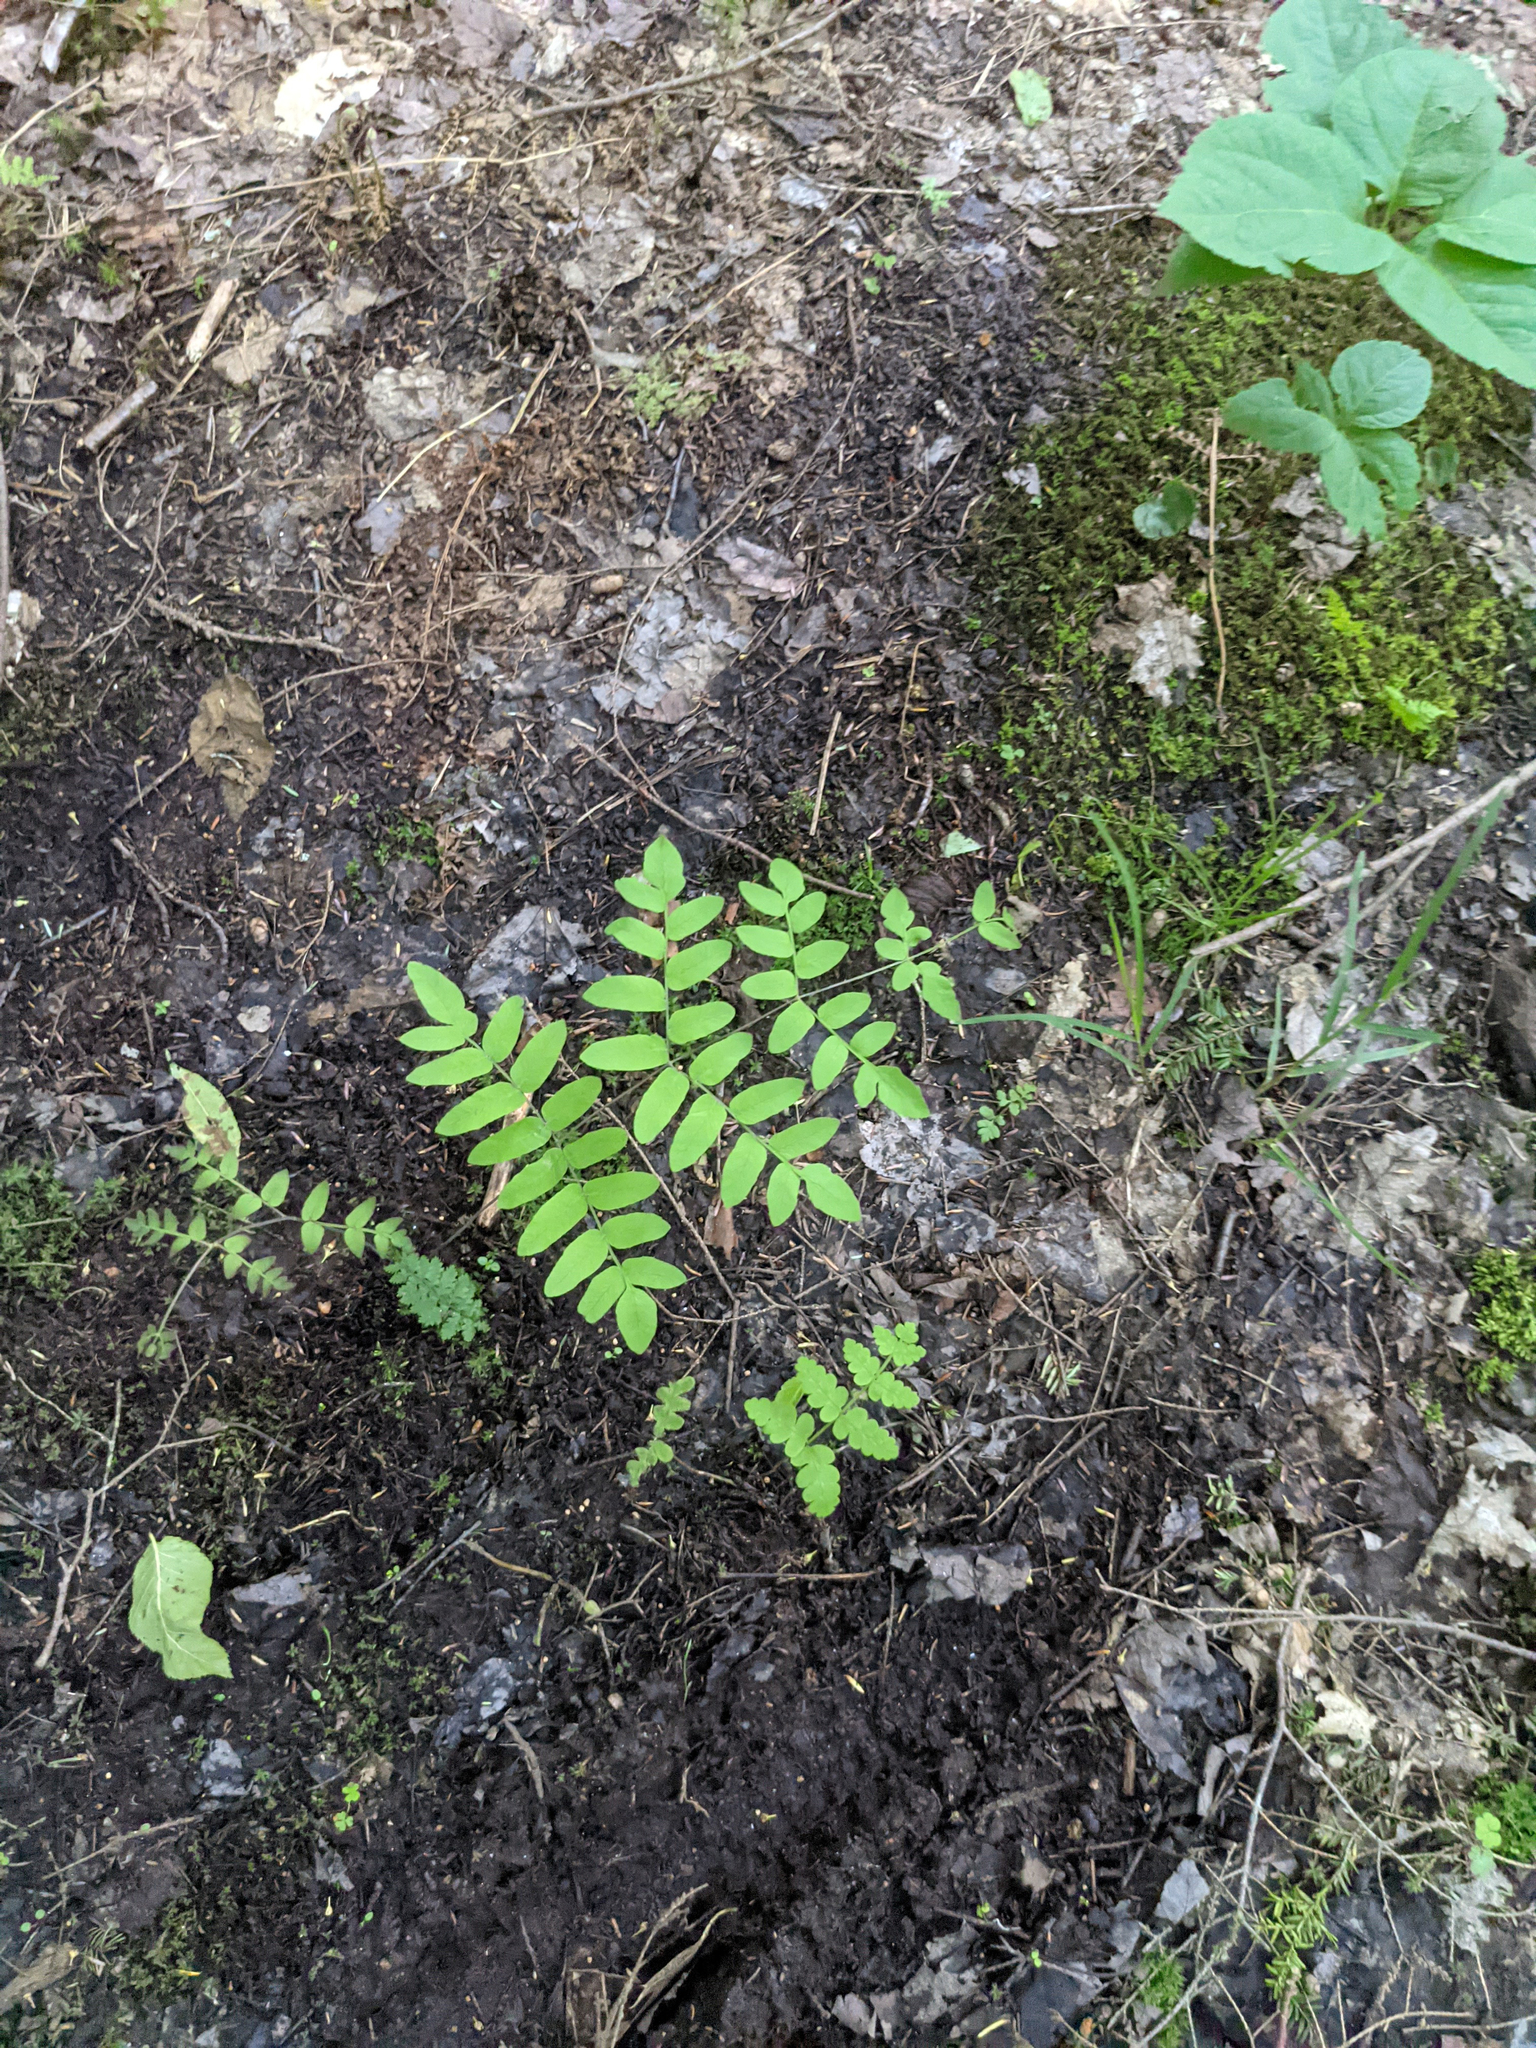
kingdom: Plantae
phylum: Tracheophyta
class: Polypodiopsida
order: Osmundales
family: Osmundaceae
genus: Osmunda
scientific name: Osmunda spectabilis
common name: American royal fern
